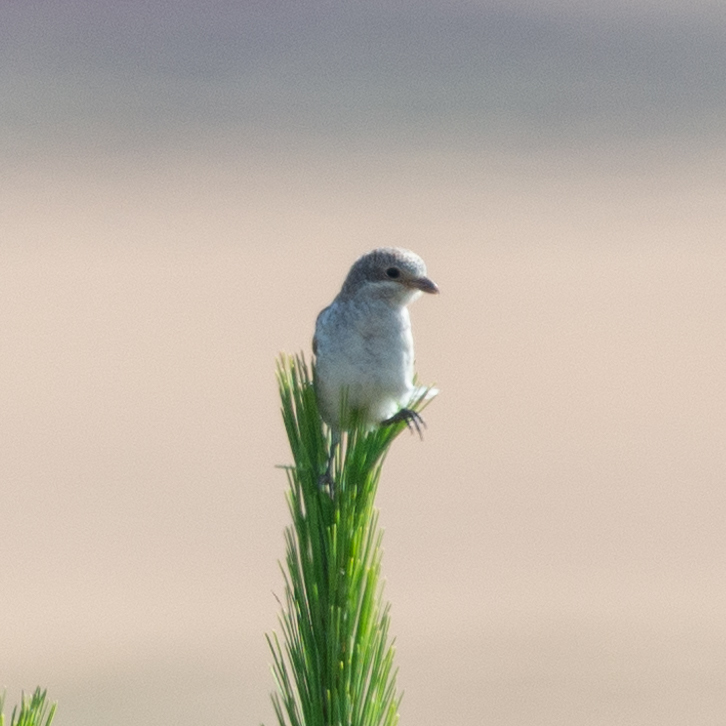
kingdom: Animalia
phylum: Chordata
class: Aves
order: Passeriformes
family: Laniidae
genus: Lanius
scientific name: Lanius senator
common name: Woodchat shrike
